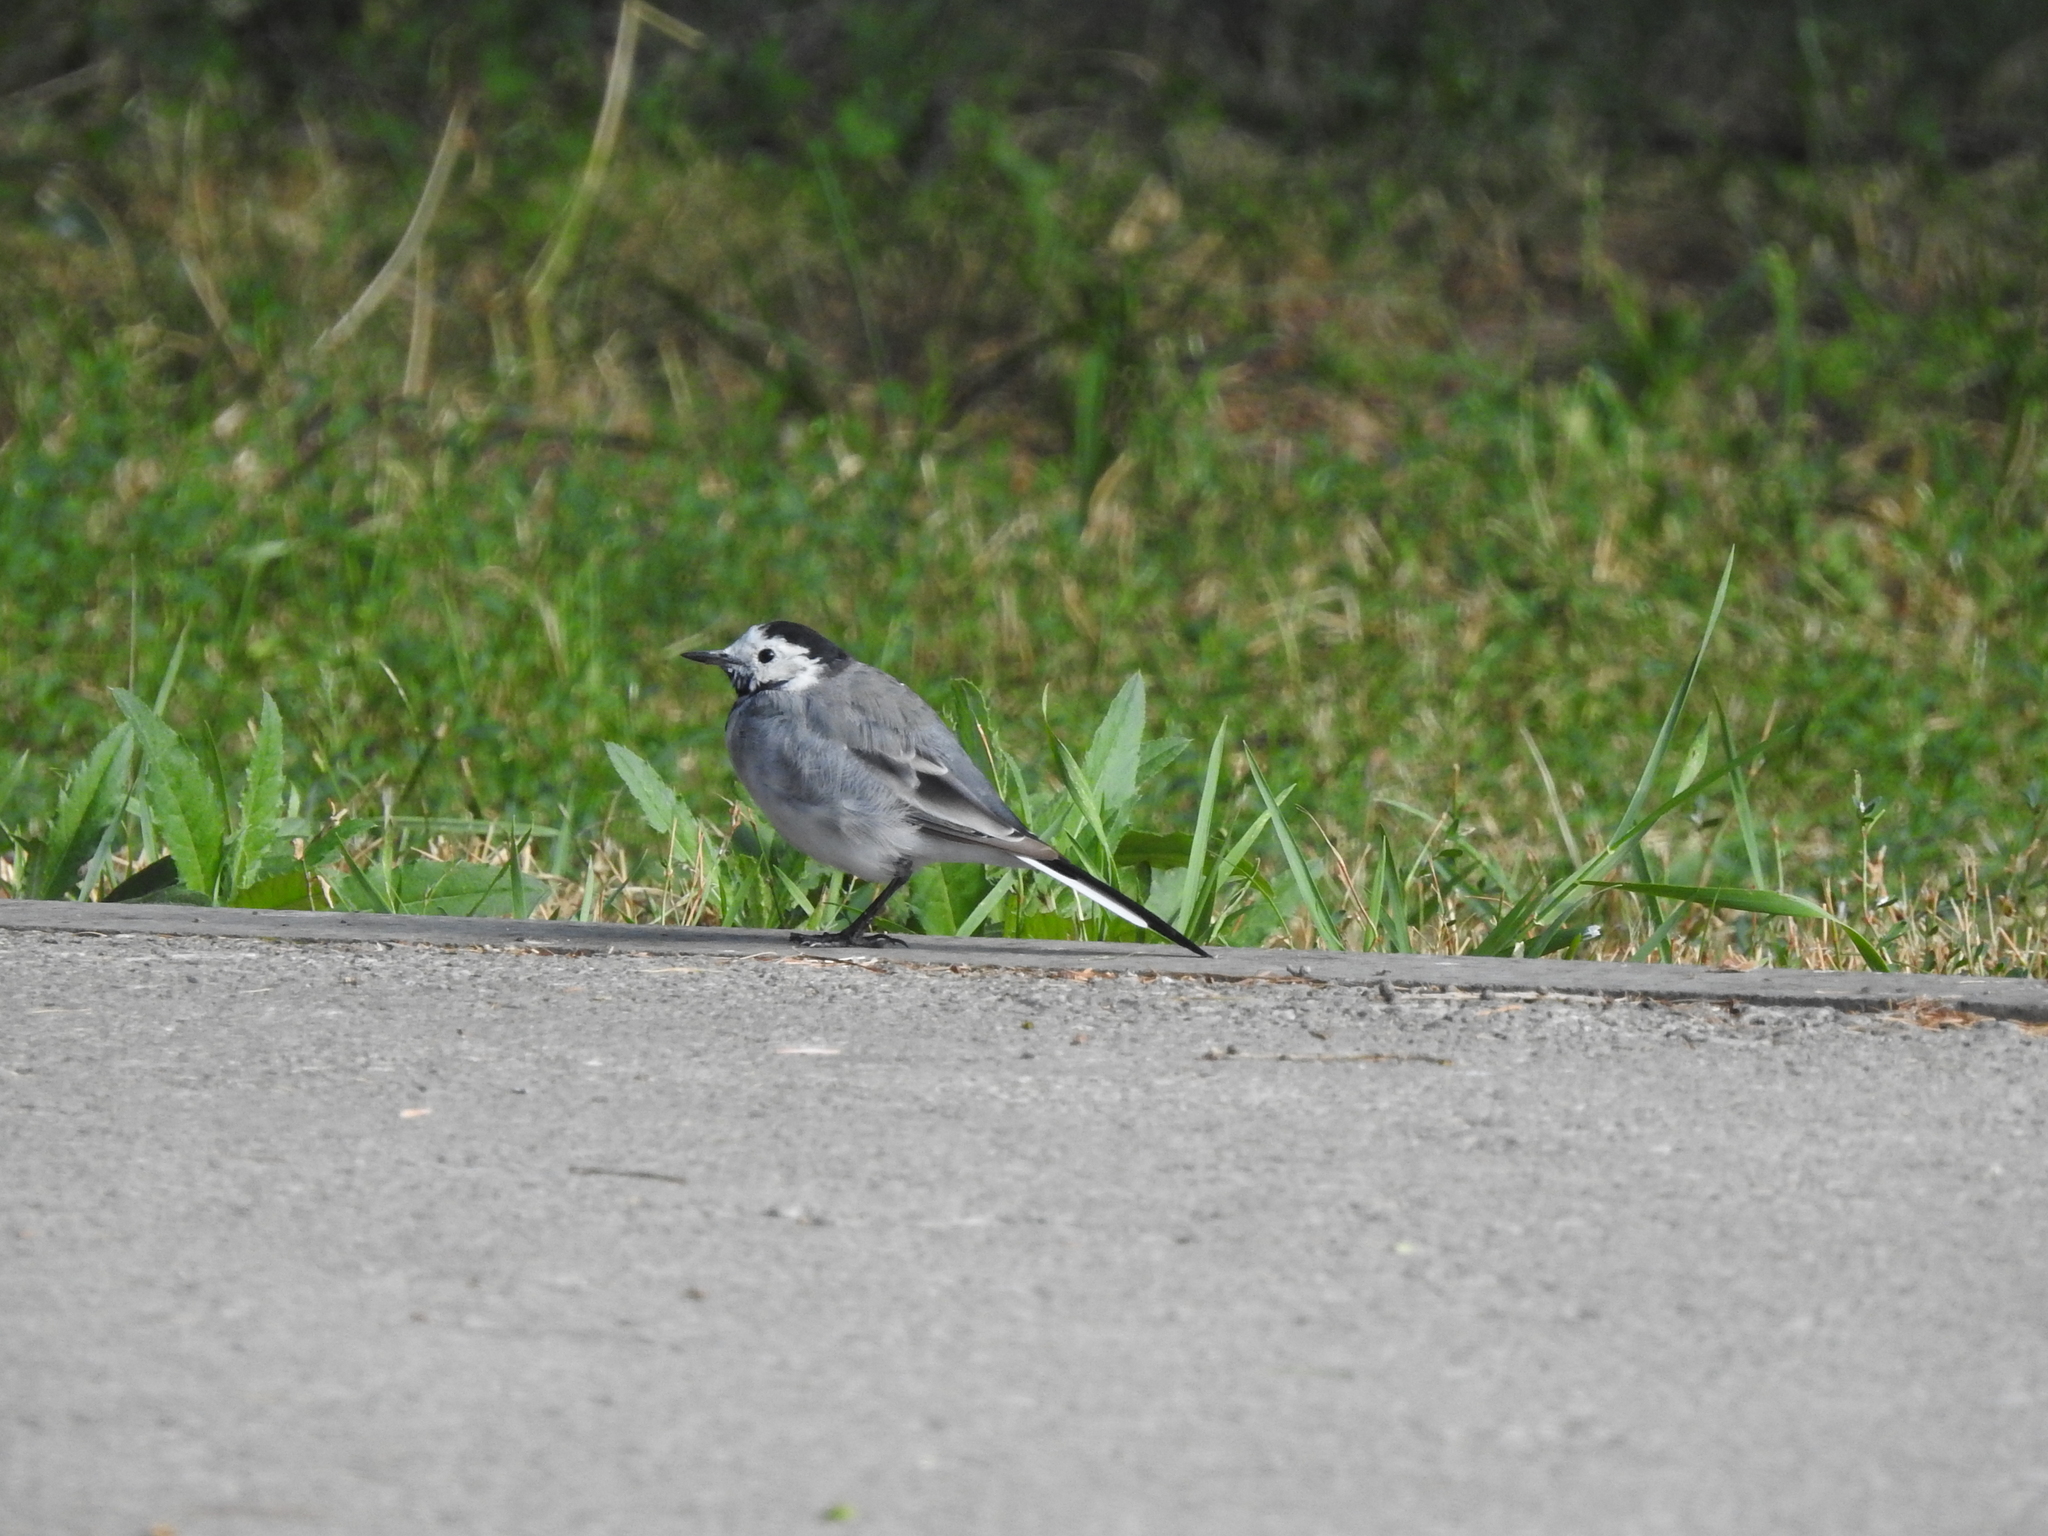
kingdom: Animalia
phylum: Chordata
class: Aves
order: Passeriformes
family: Motacillidae
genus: Motacilla
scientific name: Motacilla alba
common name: White wagtail
